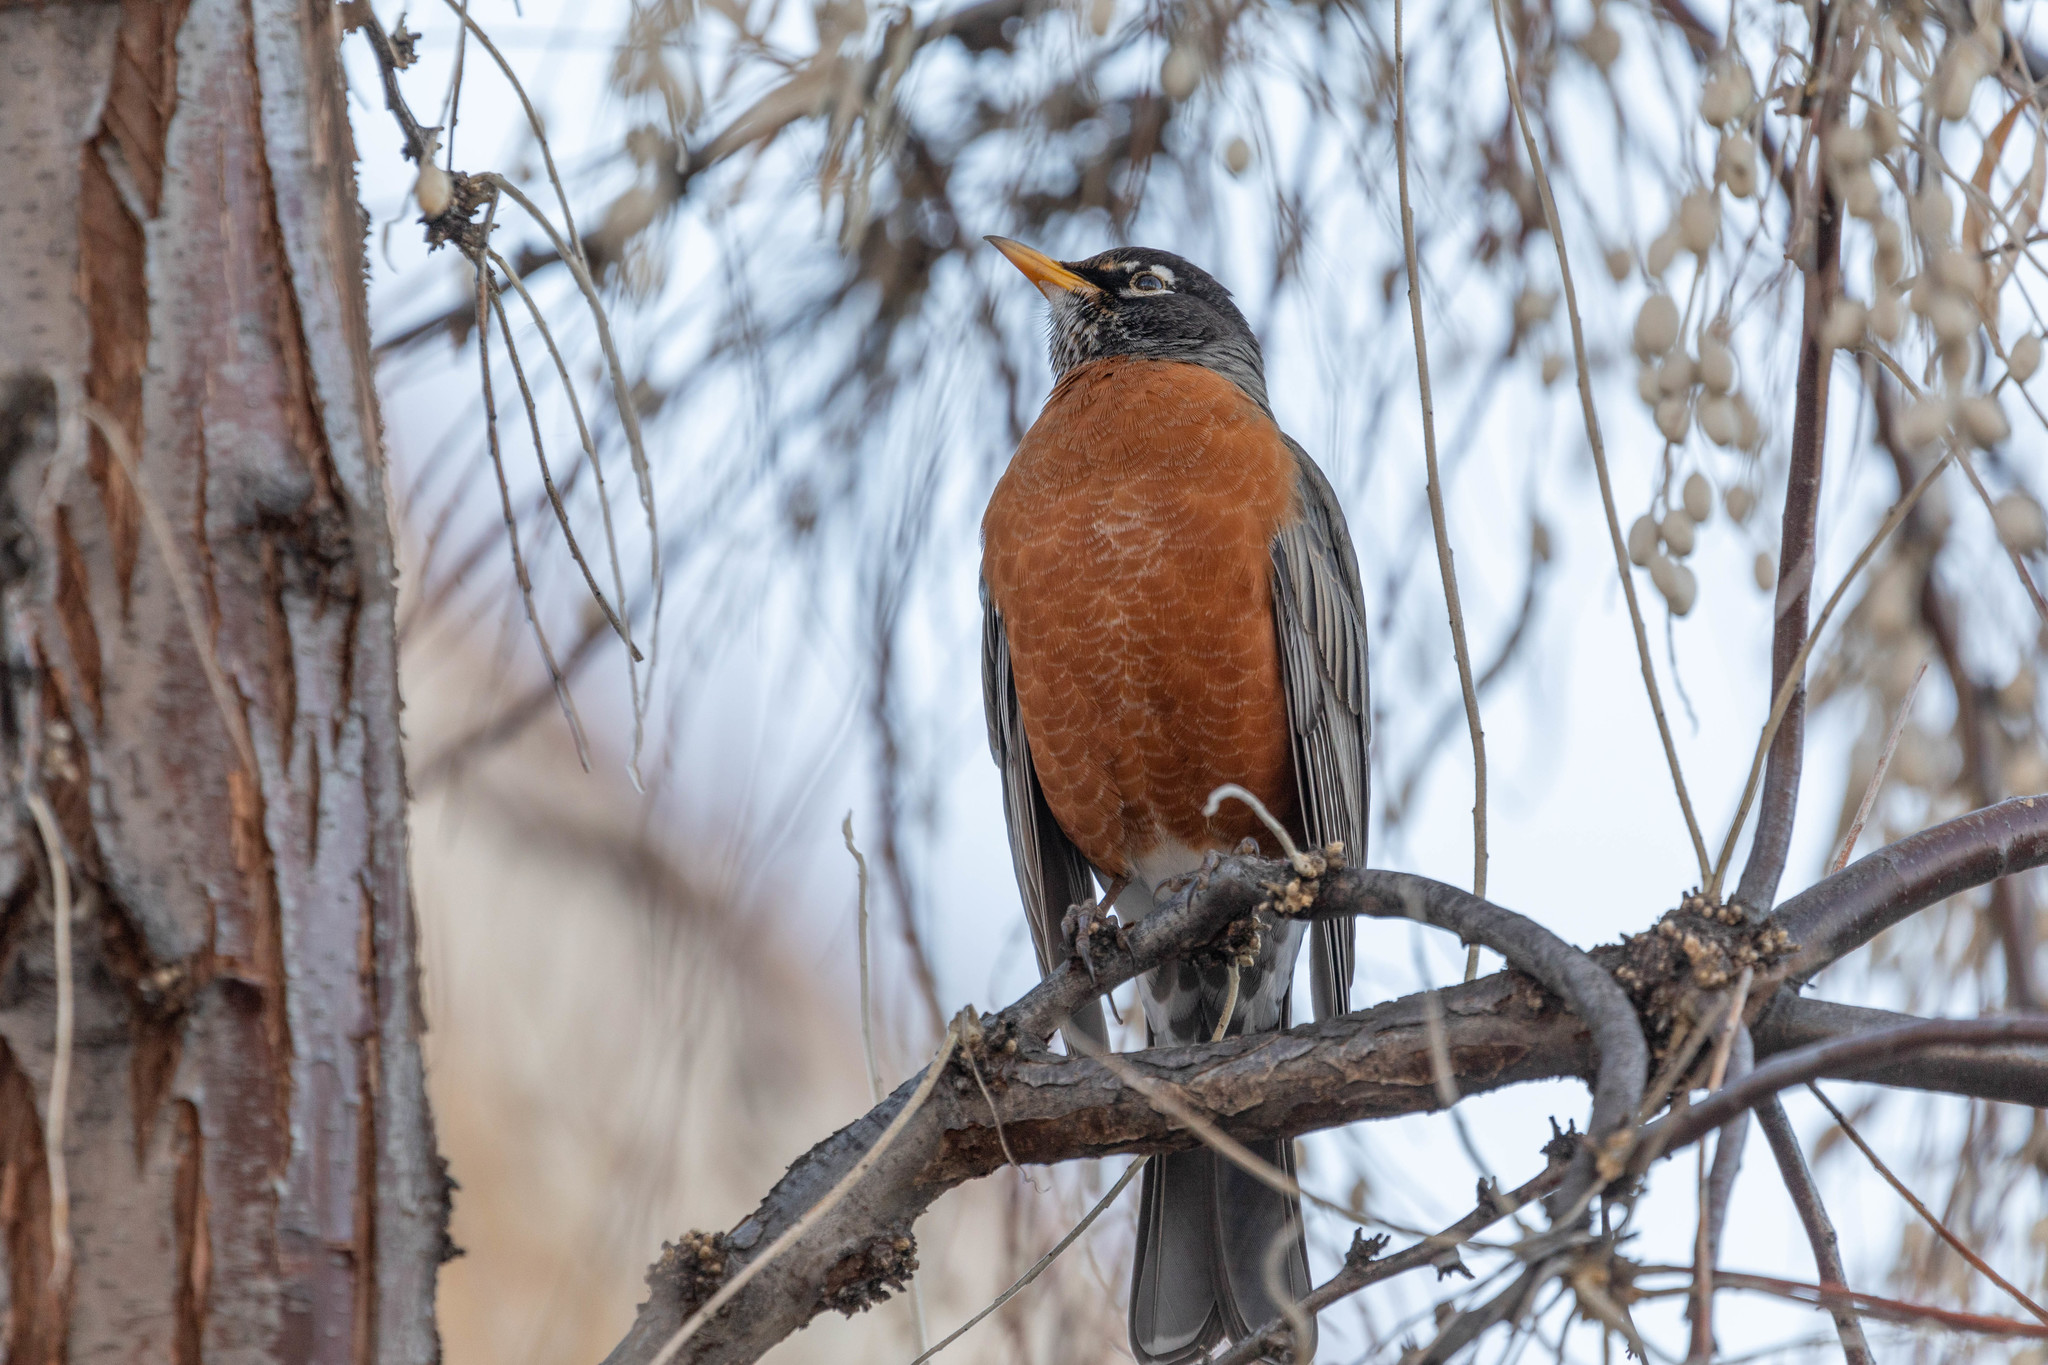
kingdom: Animalia
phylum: Chordata
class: Aves
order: Passeriformes
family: Turdidae
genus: Turdus
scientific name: Turdus migratorius
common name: American robin
